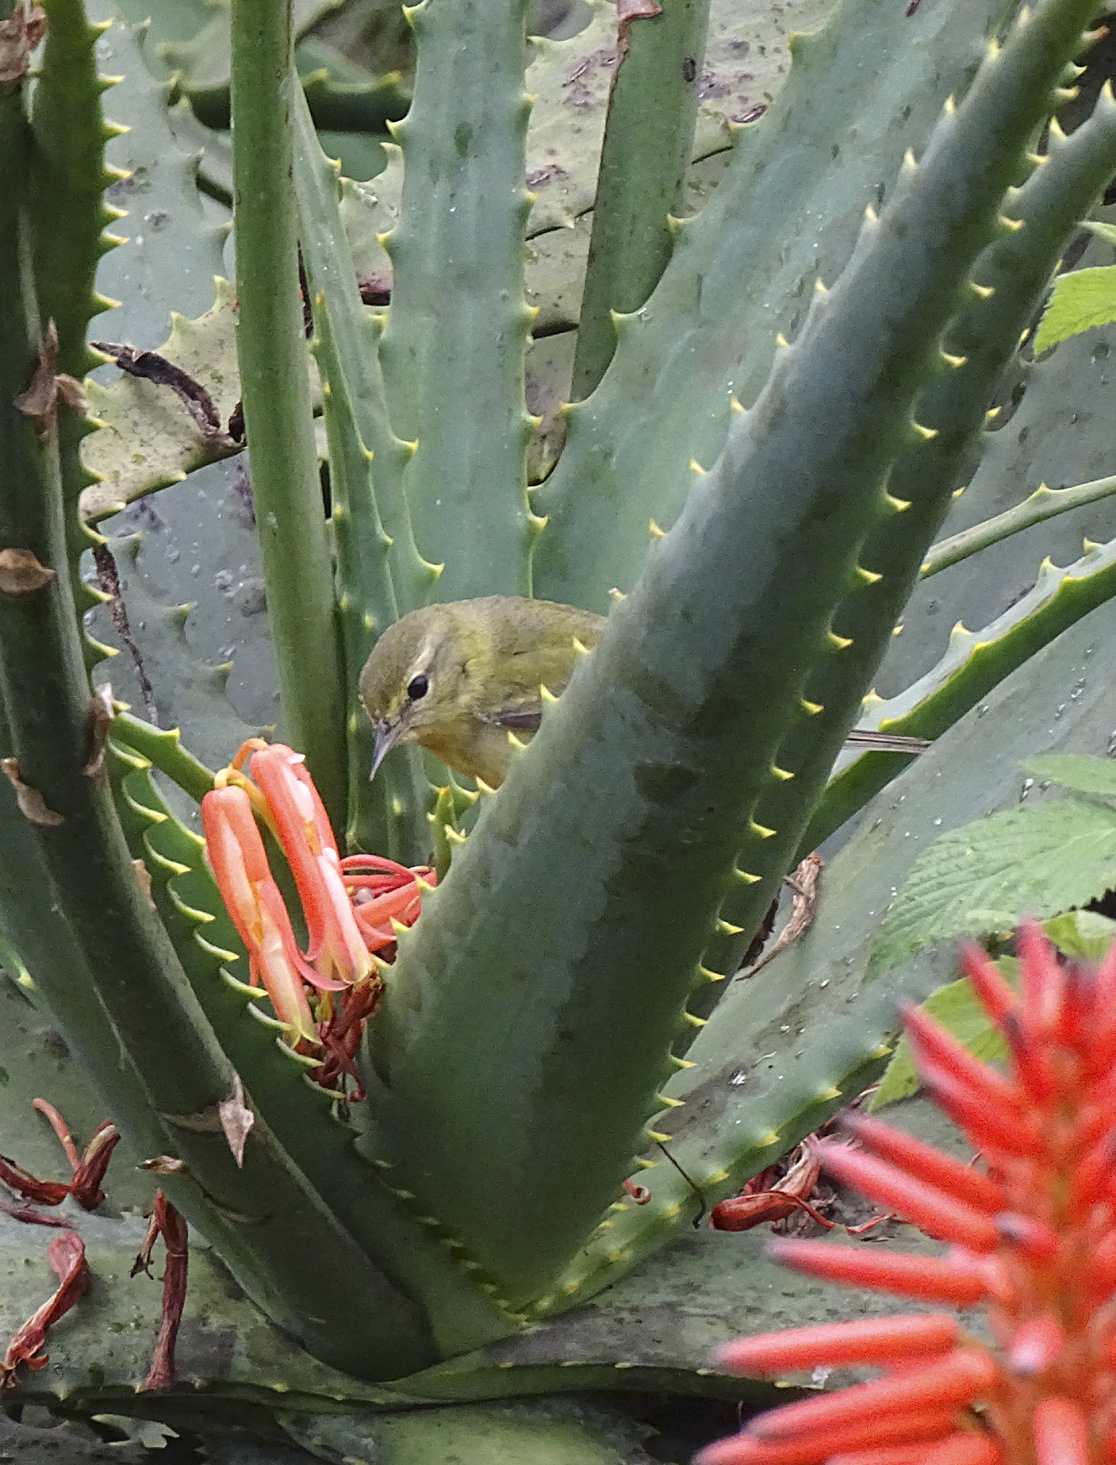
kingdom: Animalia
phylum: Chordata
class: Aves
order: Passeriformes
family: Parulidae
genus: Leiothlypis
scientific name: Leiothlypis peregrina
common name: Tennessee warbler
